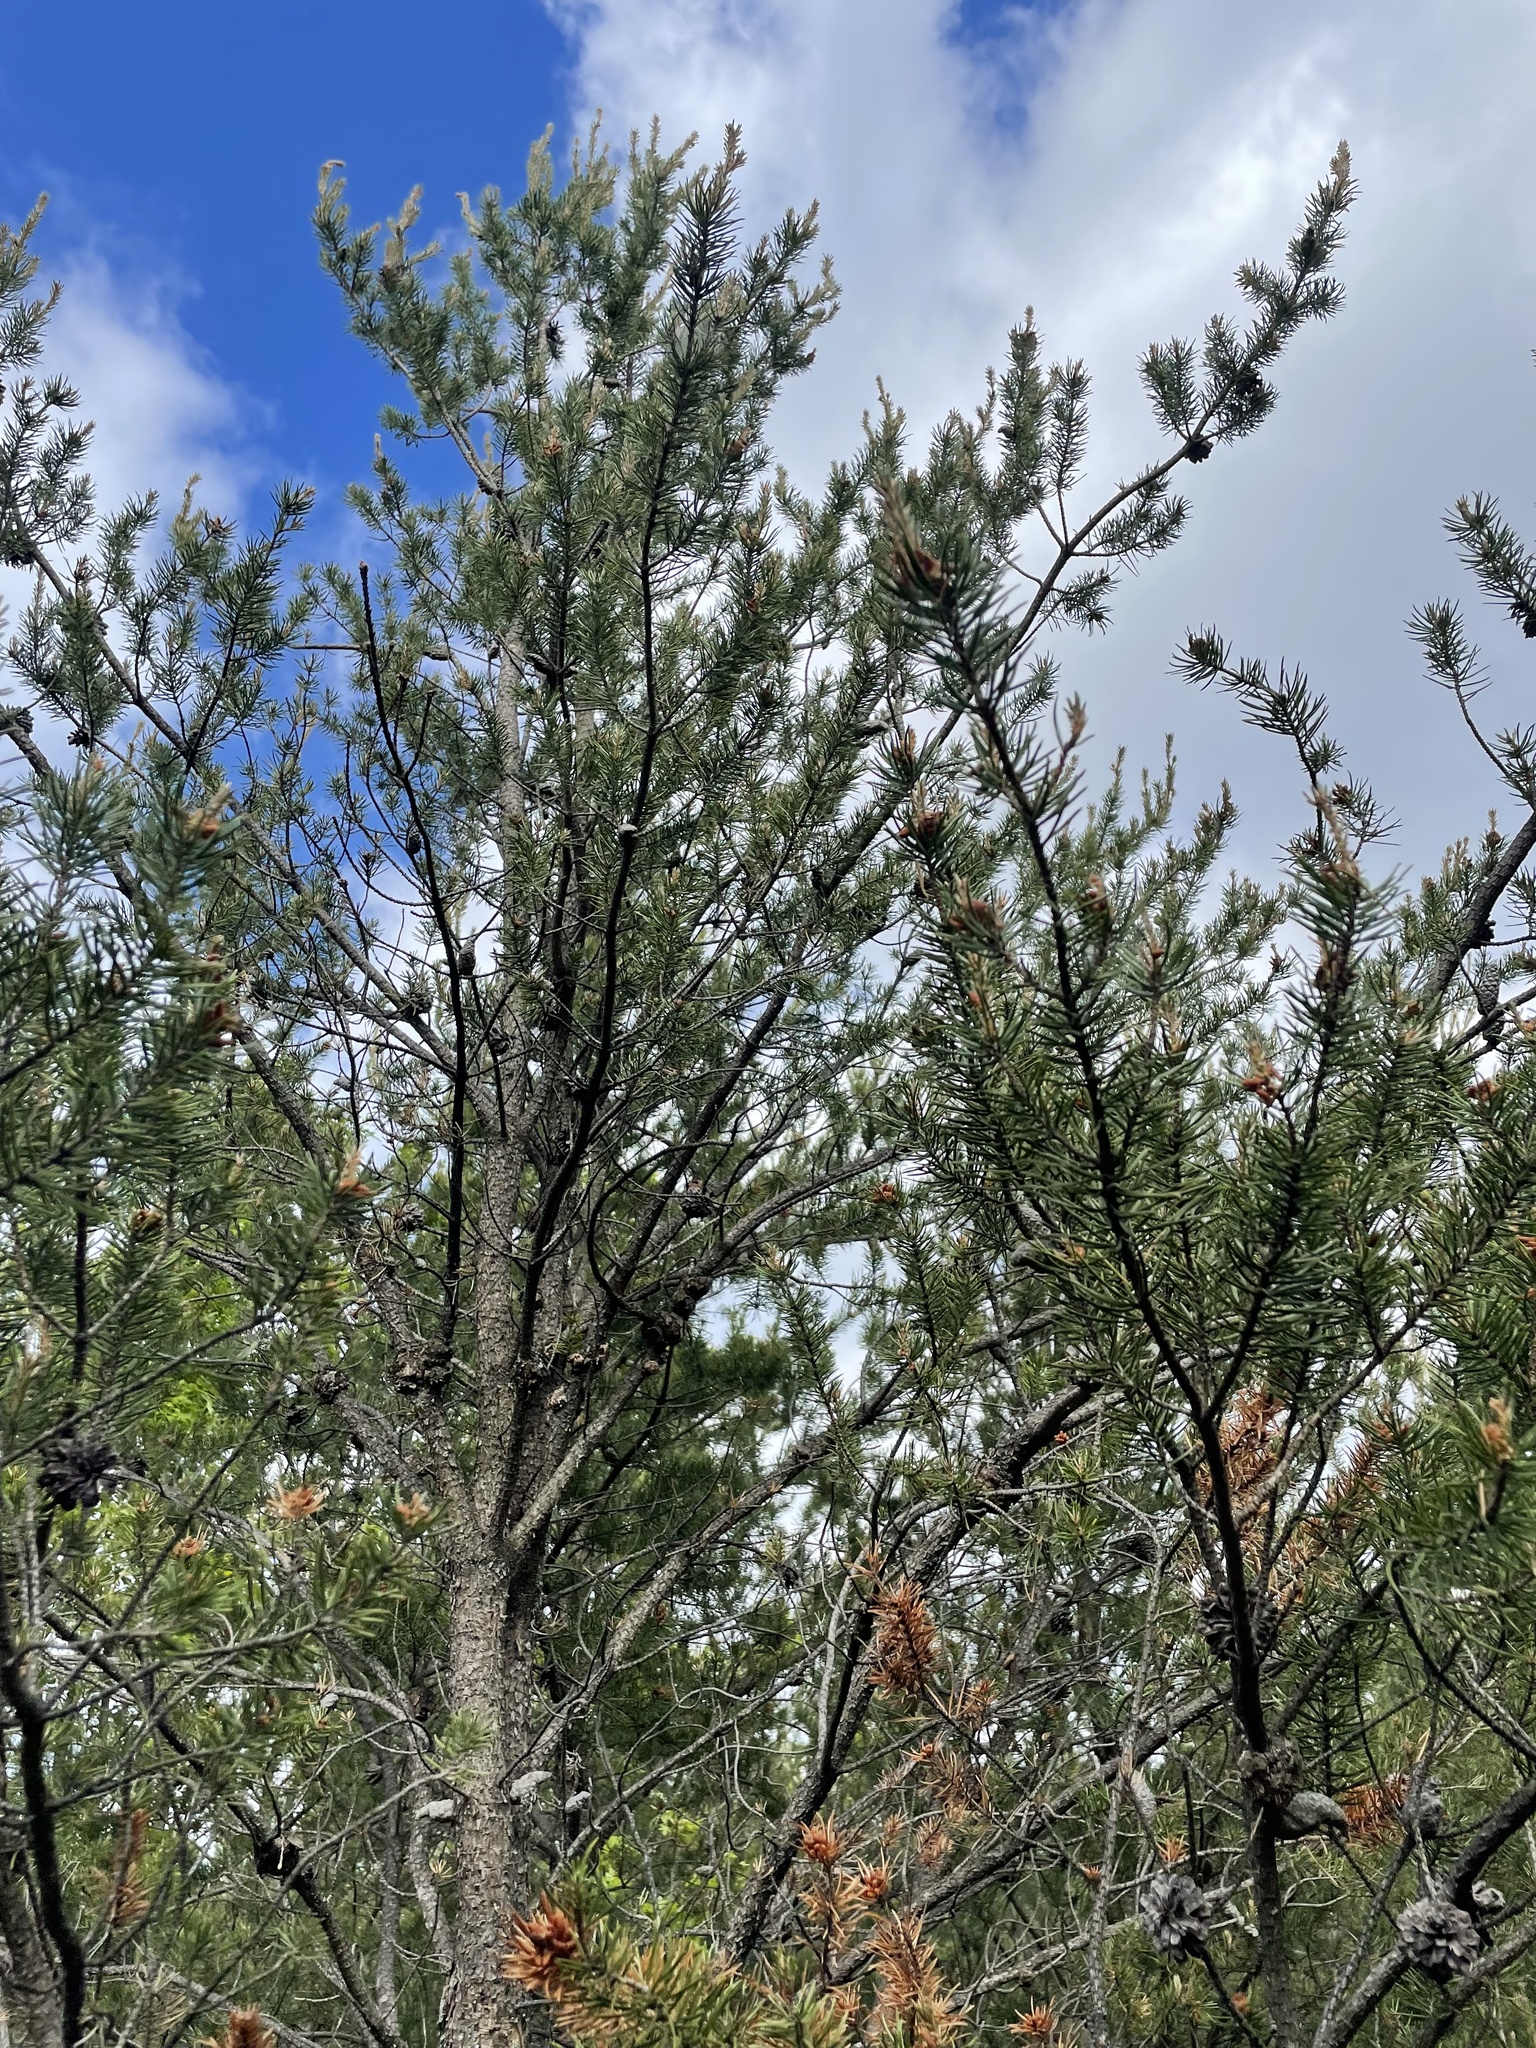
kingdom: Plantae
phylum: Tracheophyta
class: Pinopsida
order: Pinales
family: Pinaceae
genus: Pinus
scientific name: Pinus banksiana
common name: Jack pine
